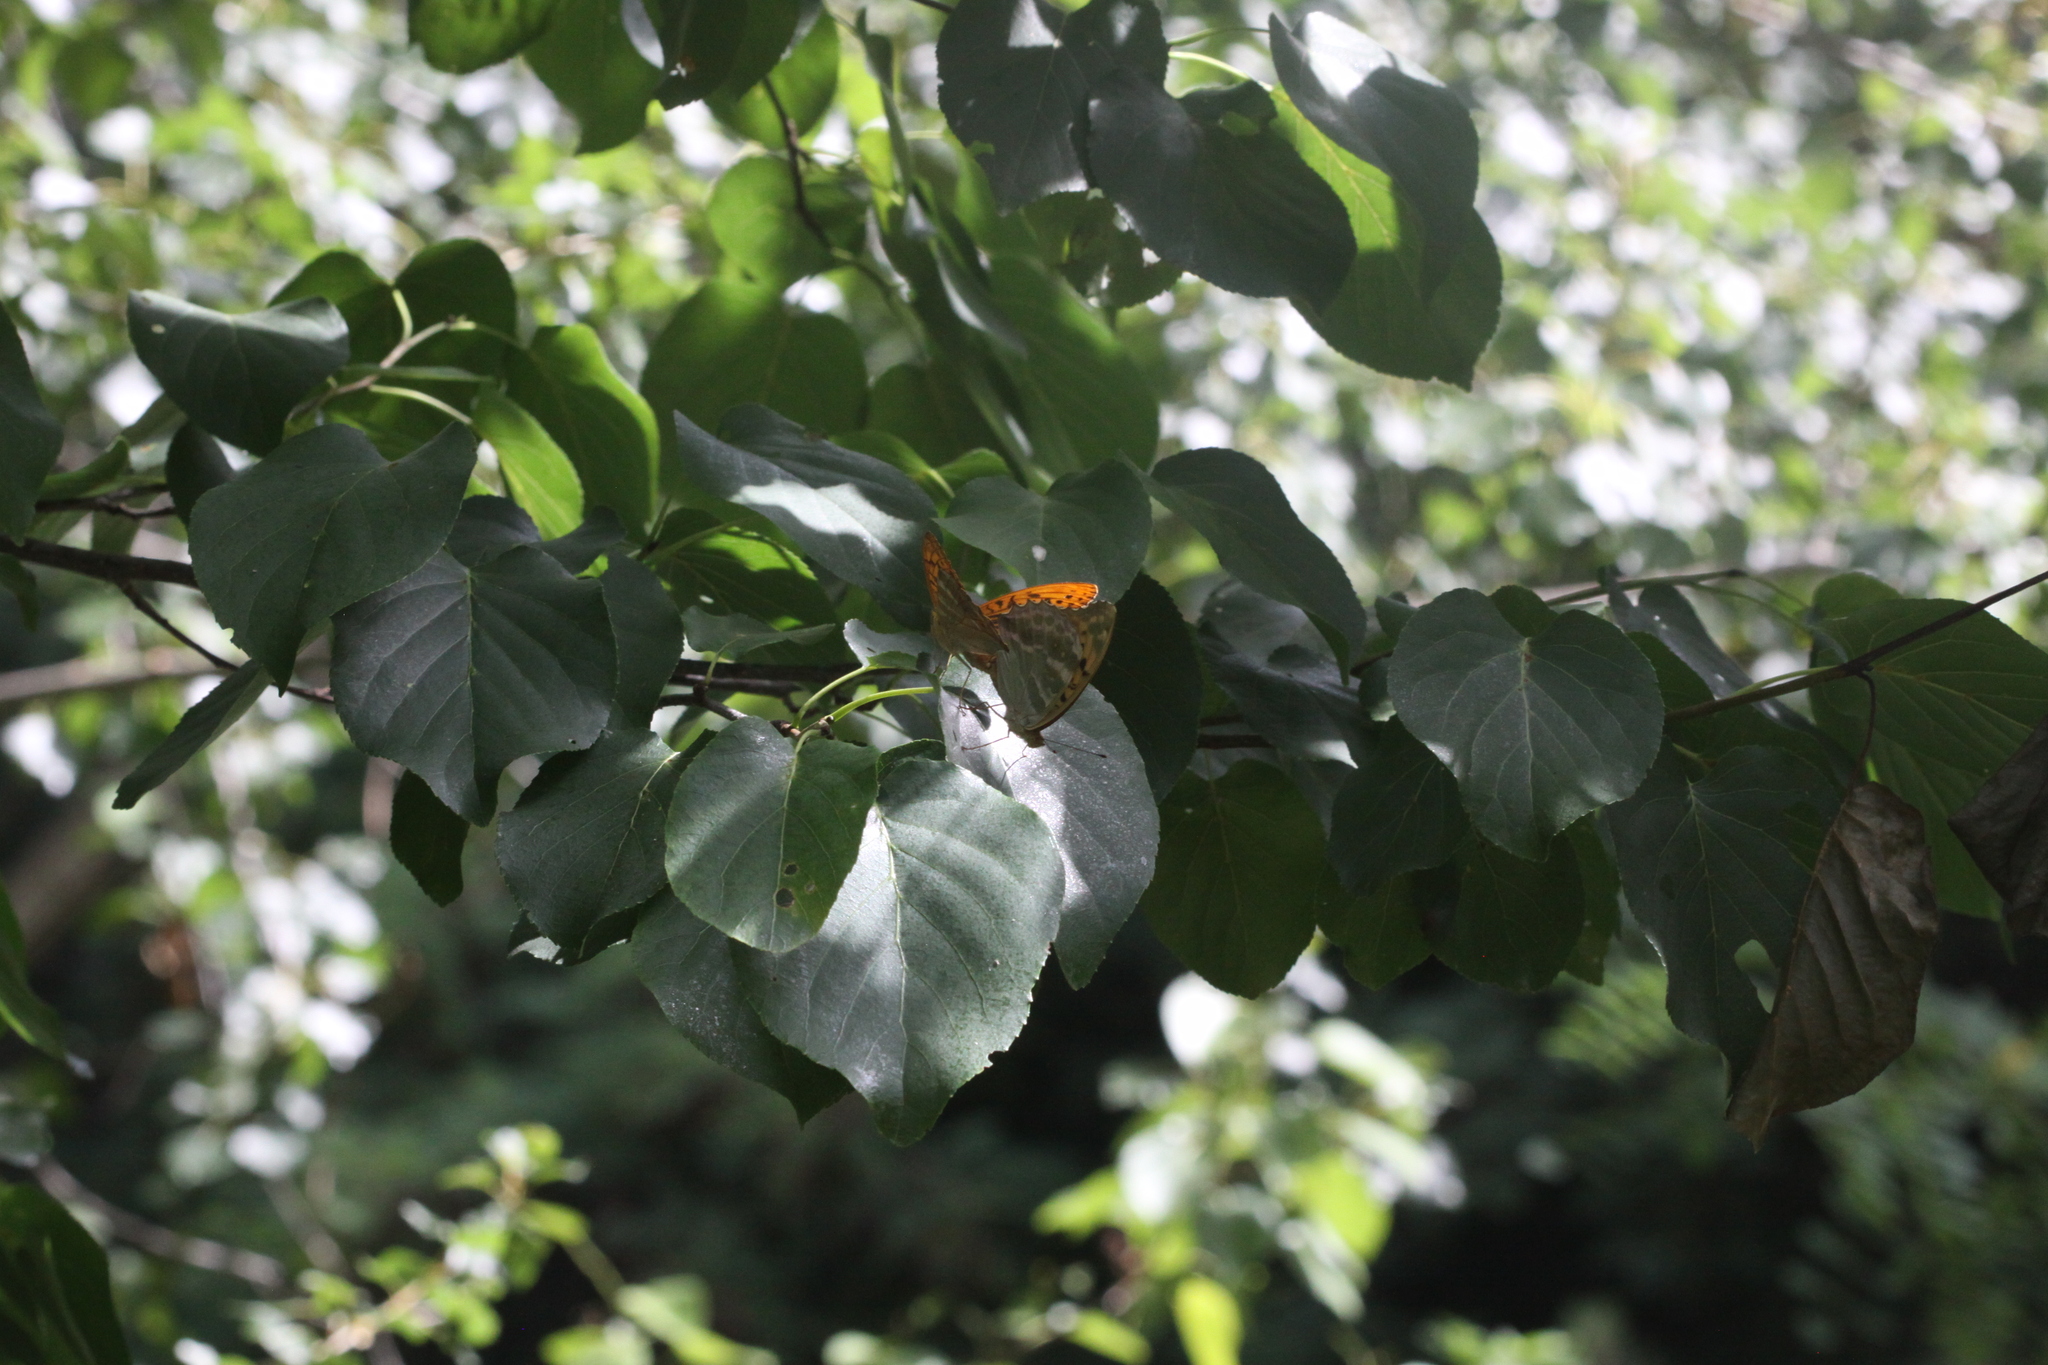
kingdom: Animalia
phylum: Arthropoda
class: Insecta
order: Lepidoptera
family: Nymphalidae
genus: Argynnis
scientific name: Argynnis paphia
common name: Silver-washed fritillary
